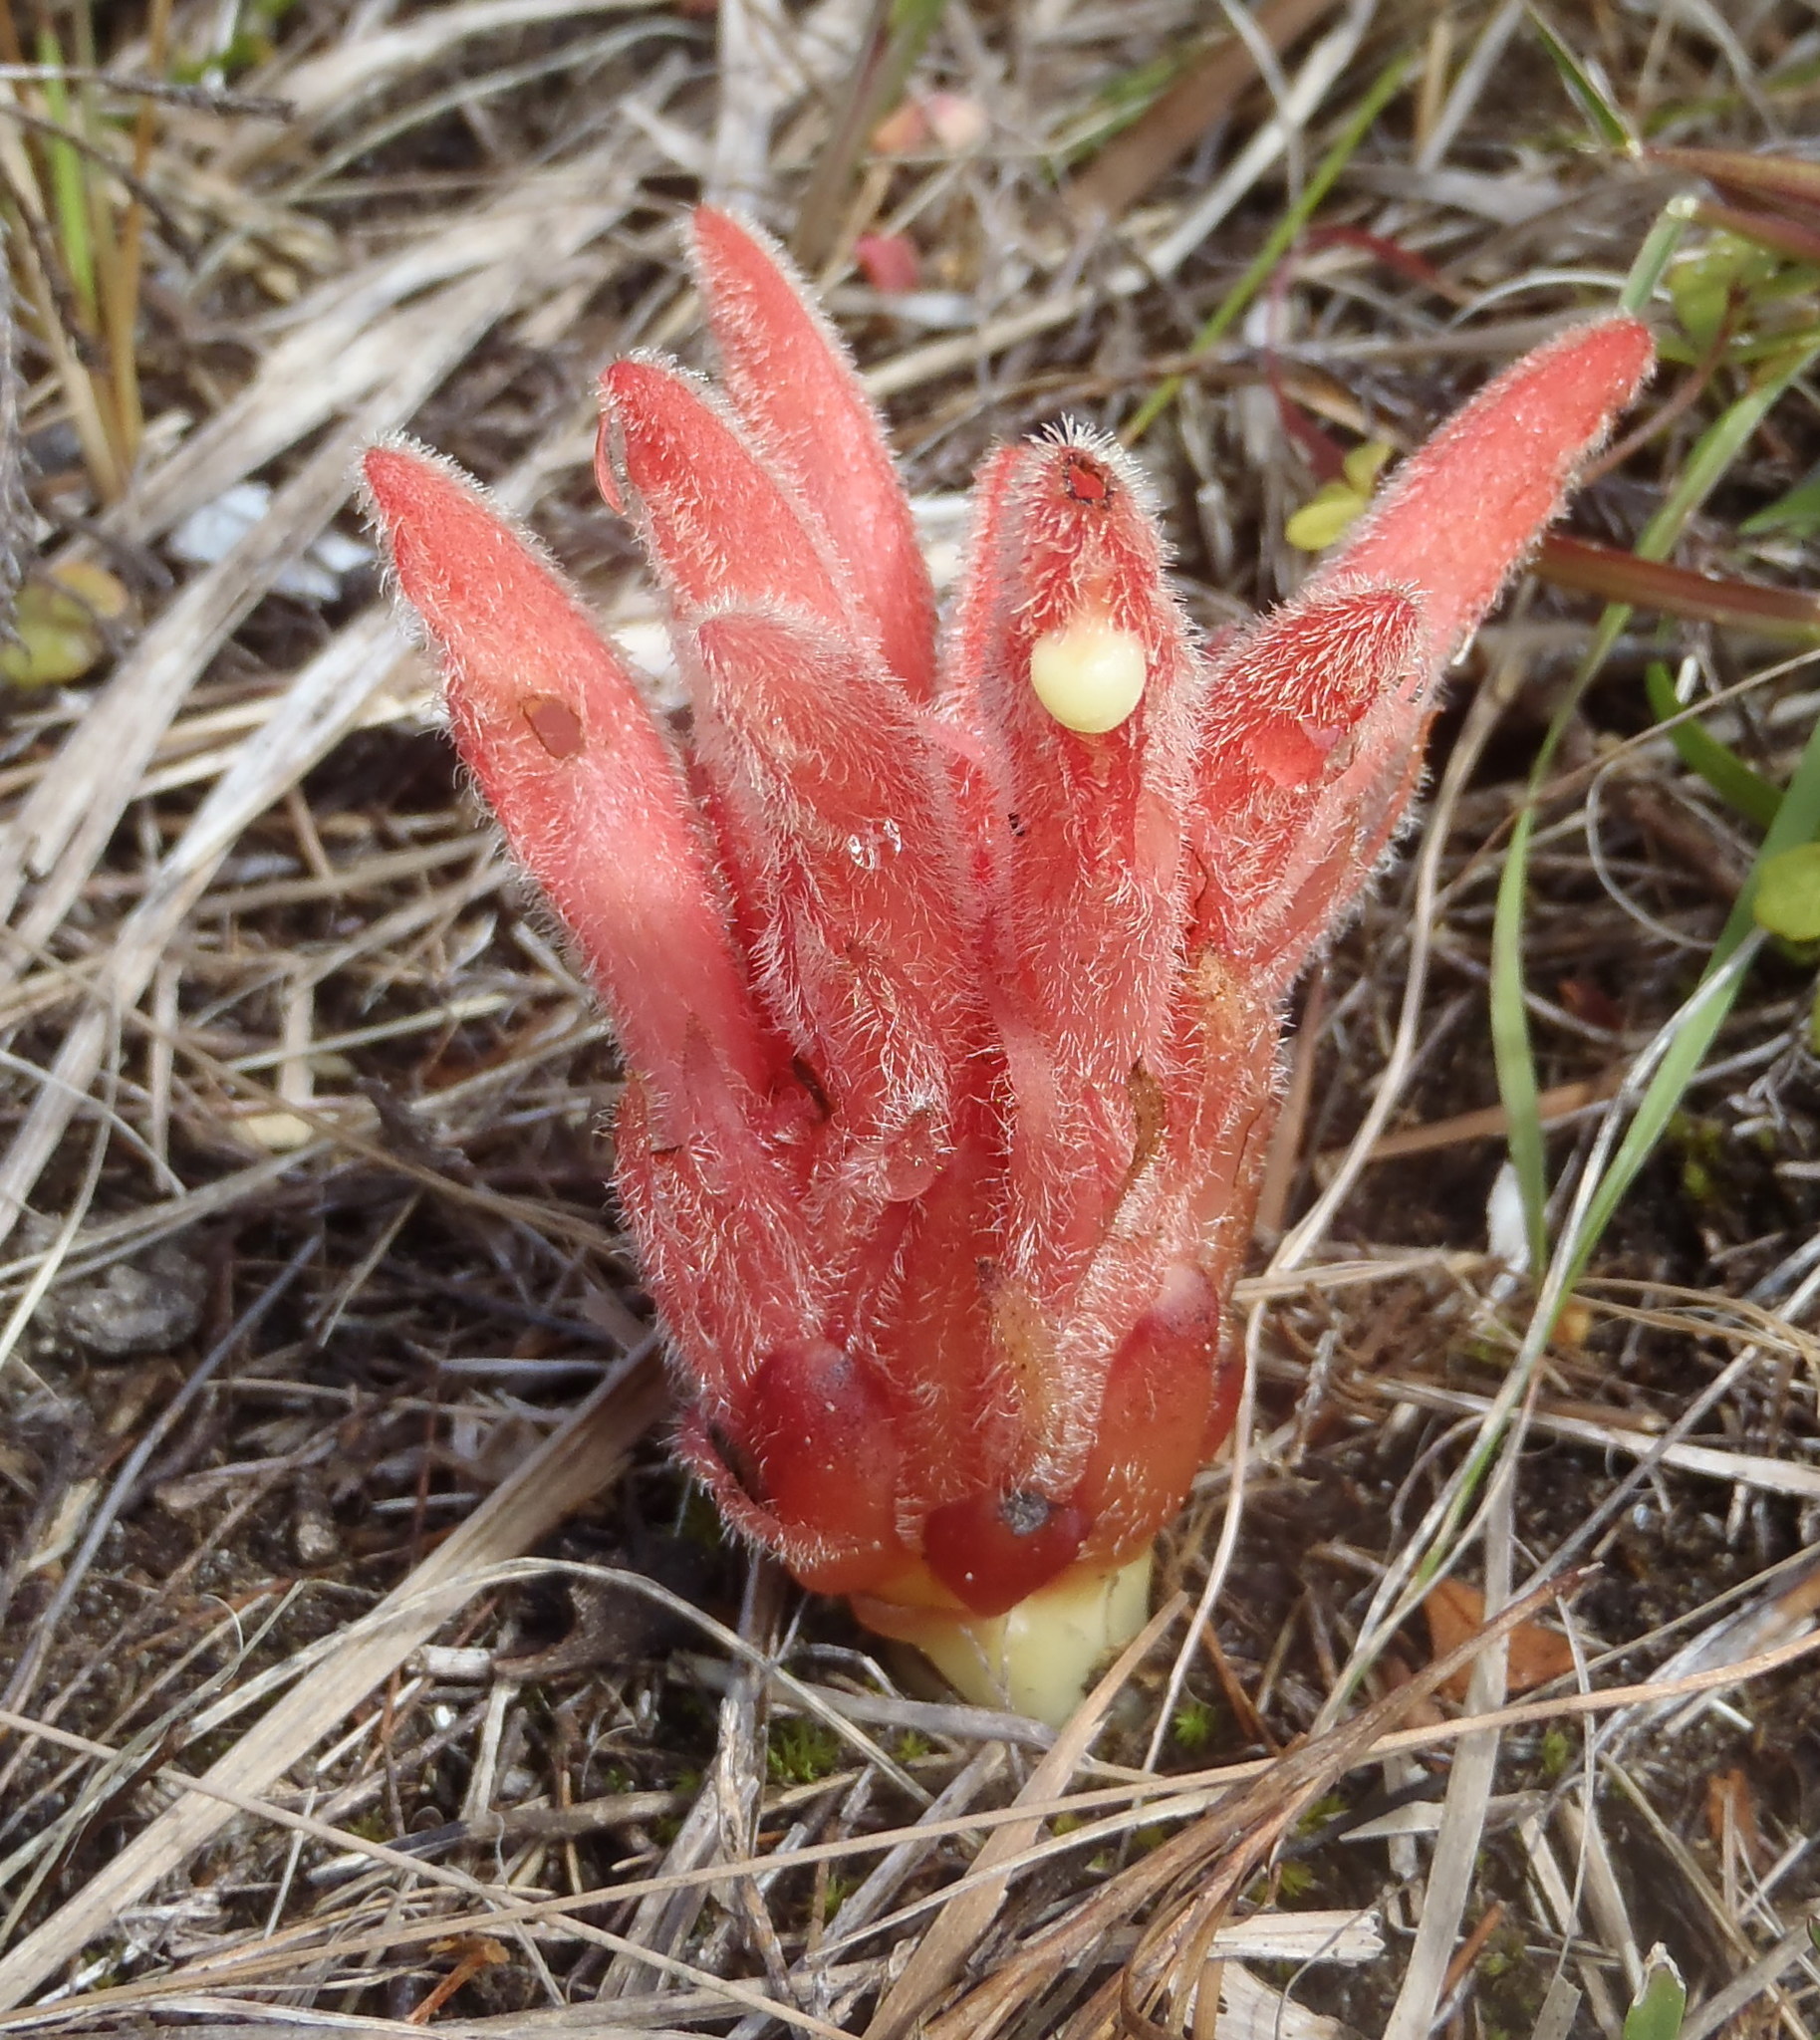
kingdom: Plantae
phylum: Tracheophyta
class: Magnoliopsida
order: Lamiales
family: Orobanchaceae
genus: Hyobanche
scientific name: Hyobanche sanguinea
